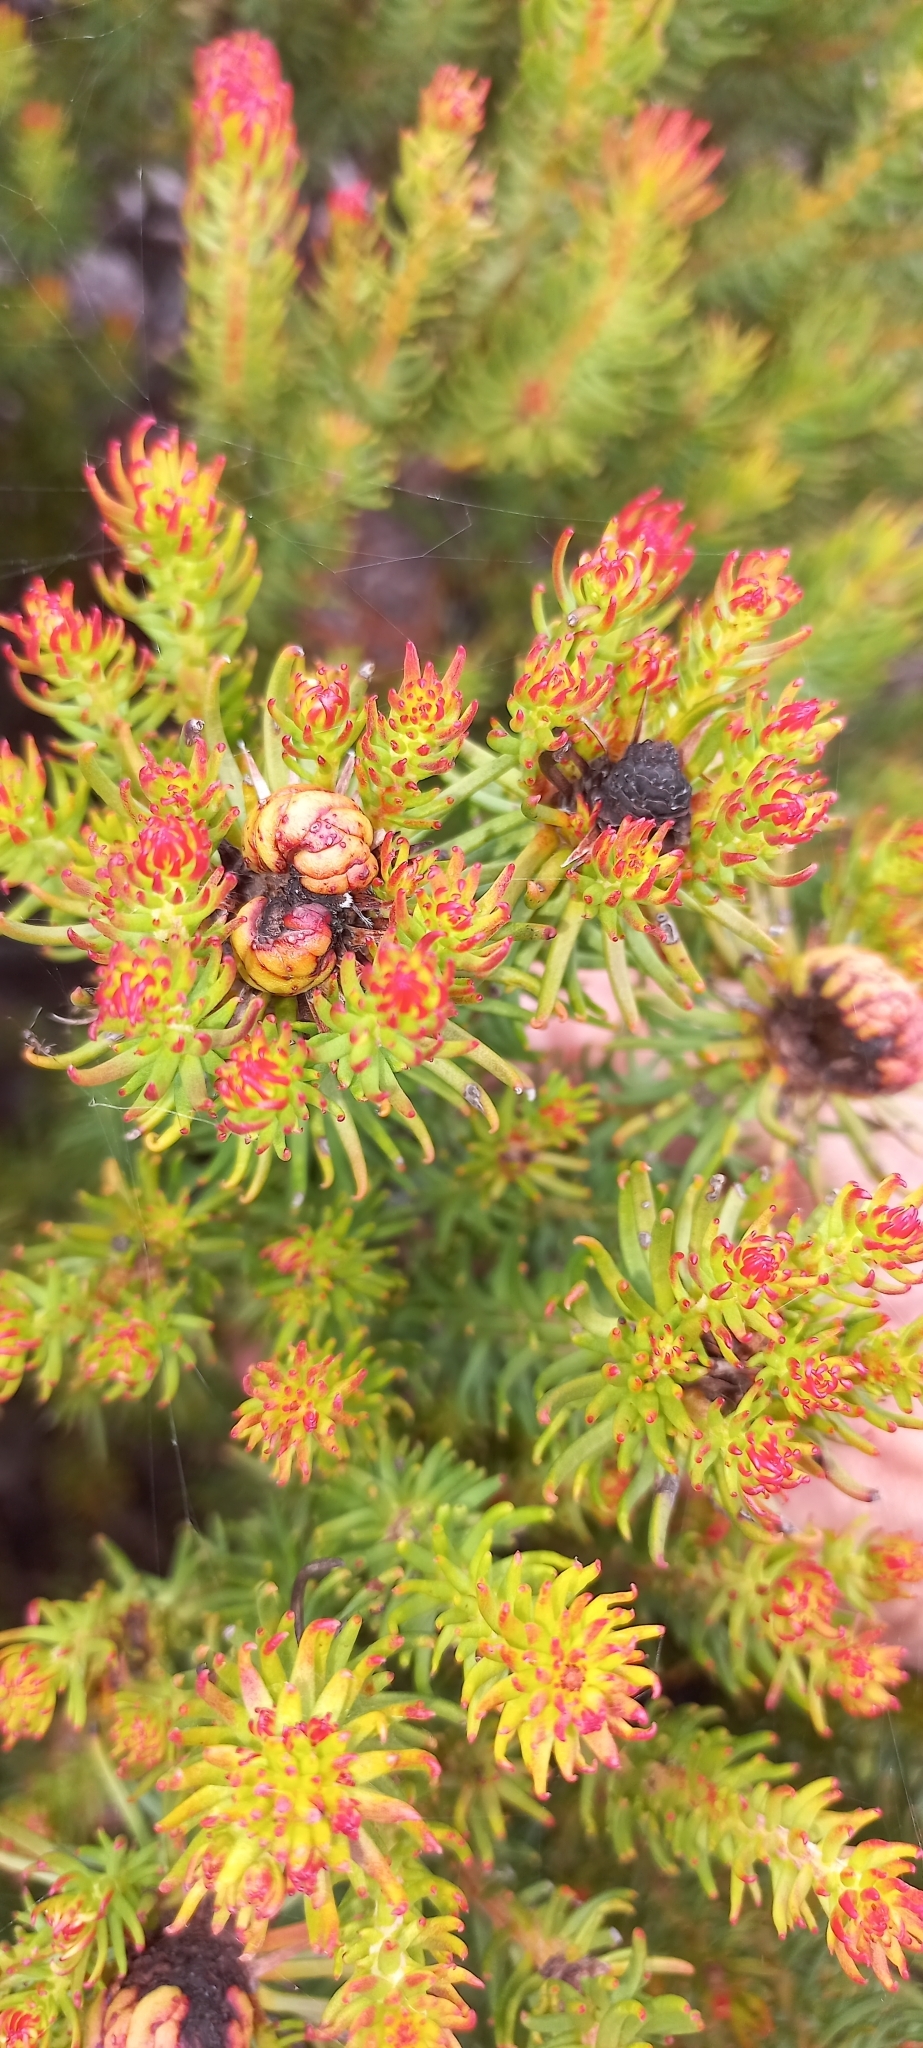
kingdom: Plantae
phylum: Tracheophyta
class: Magnoliopsida
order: Proteales
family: Proteaceae
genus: Leucadendron
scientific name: Leucadendron teretifolium
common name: Needle-leaf conebush
